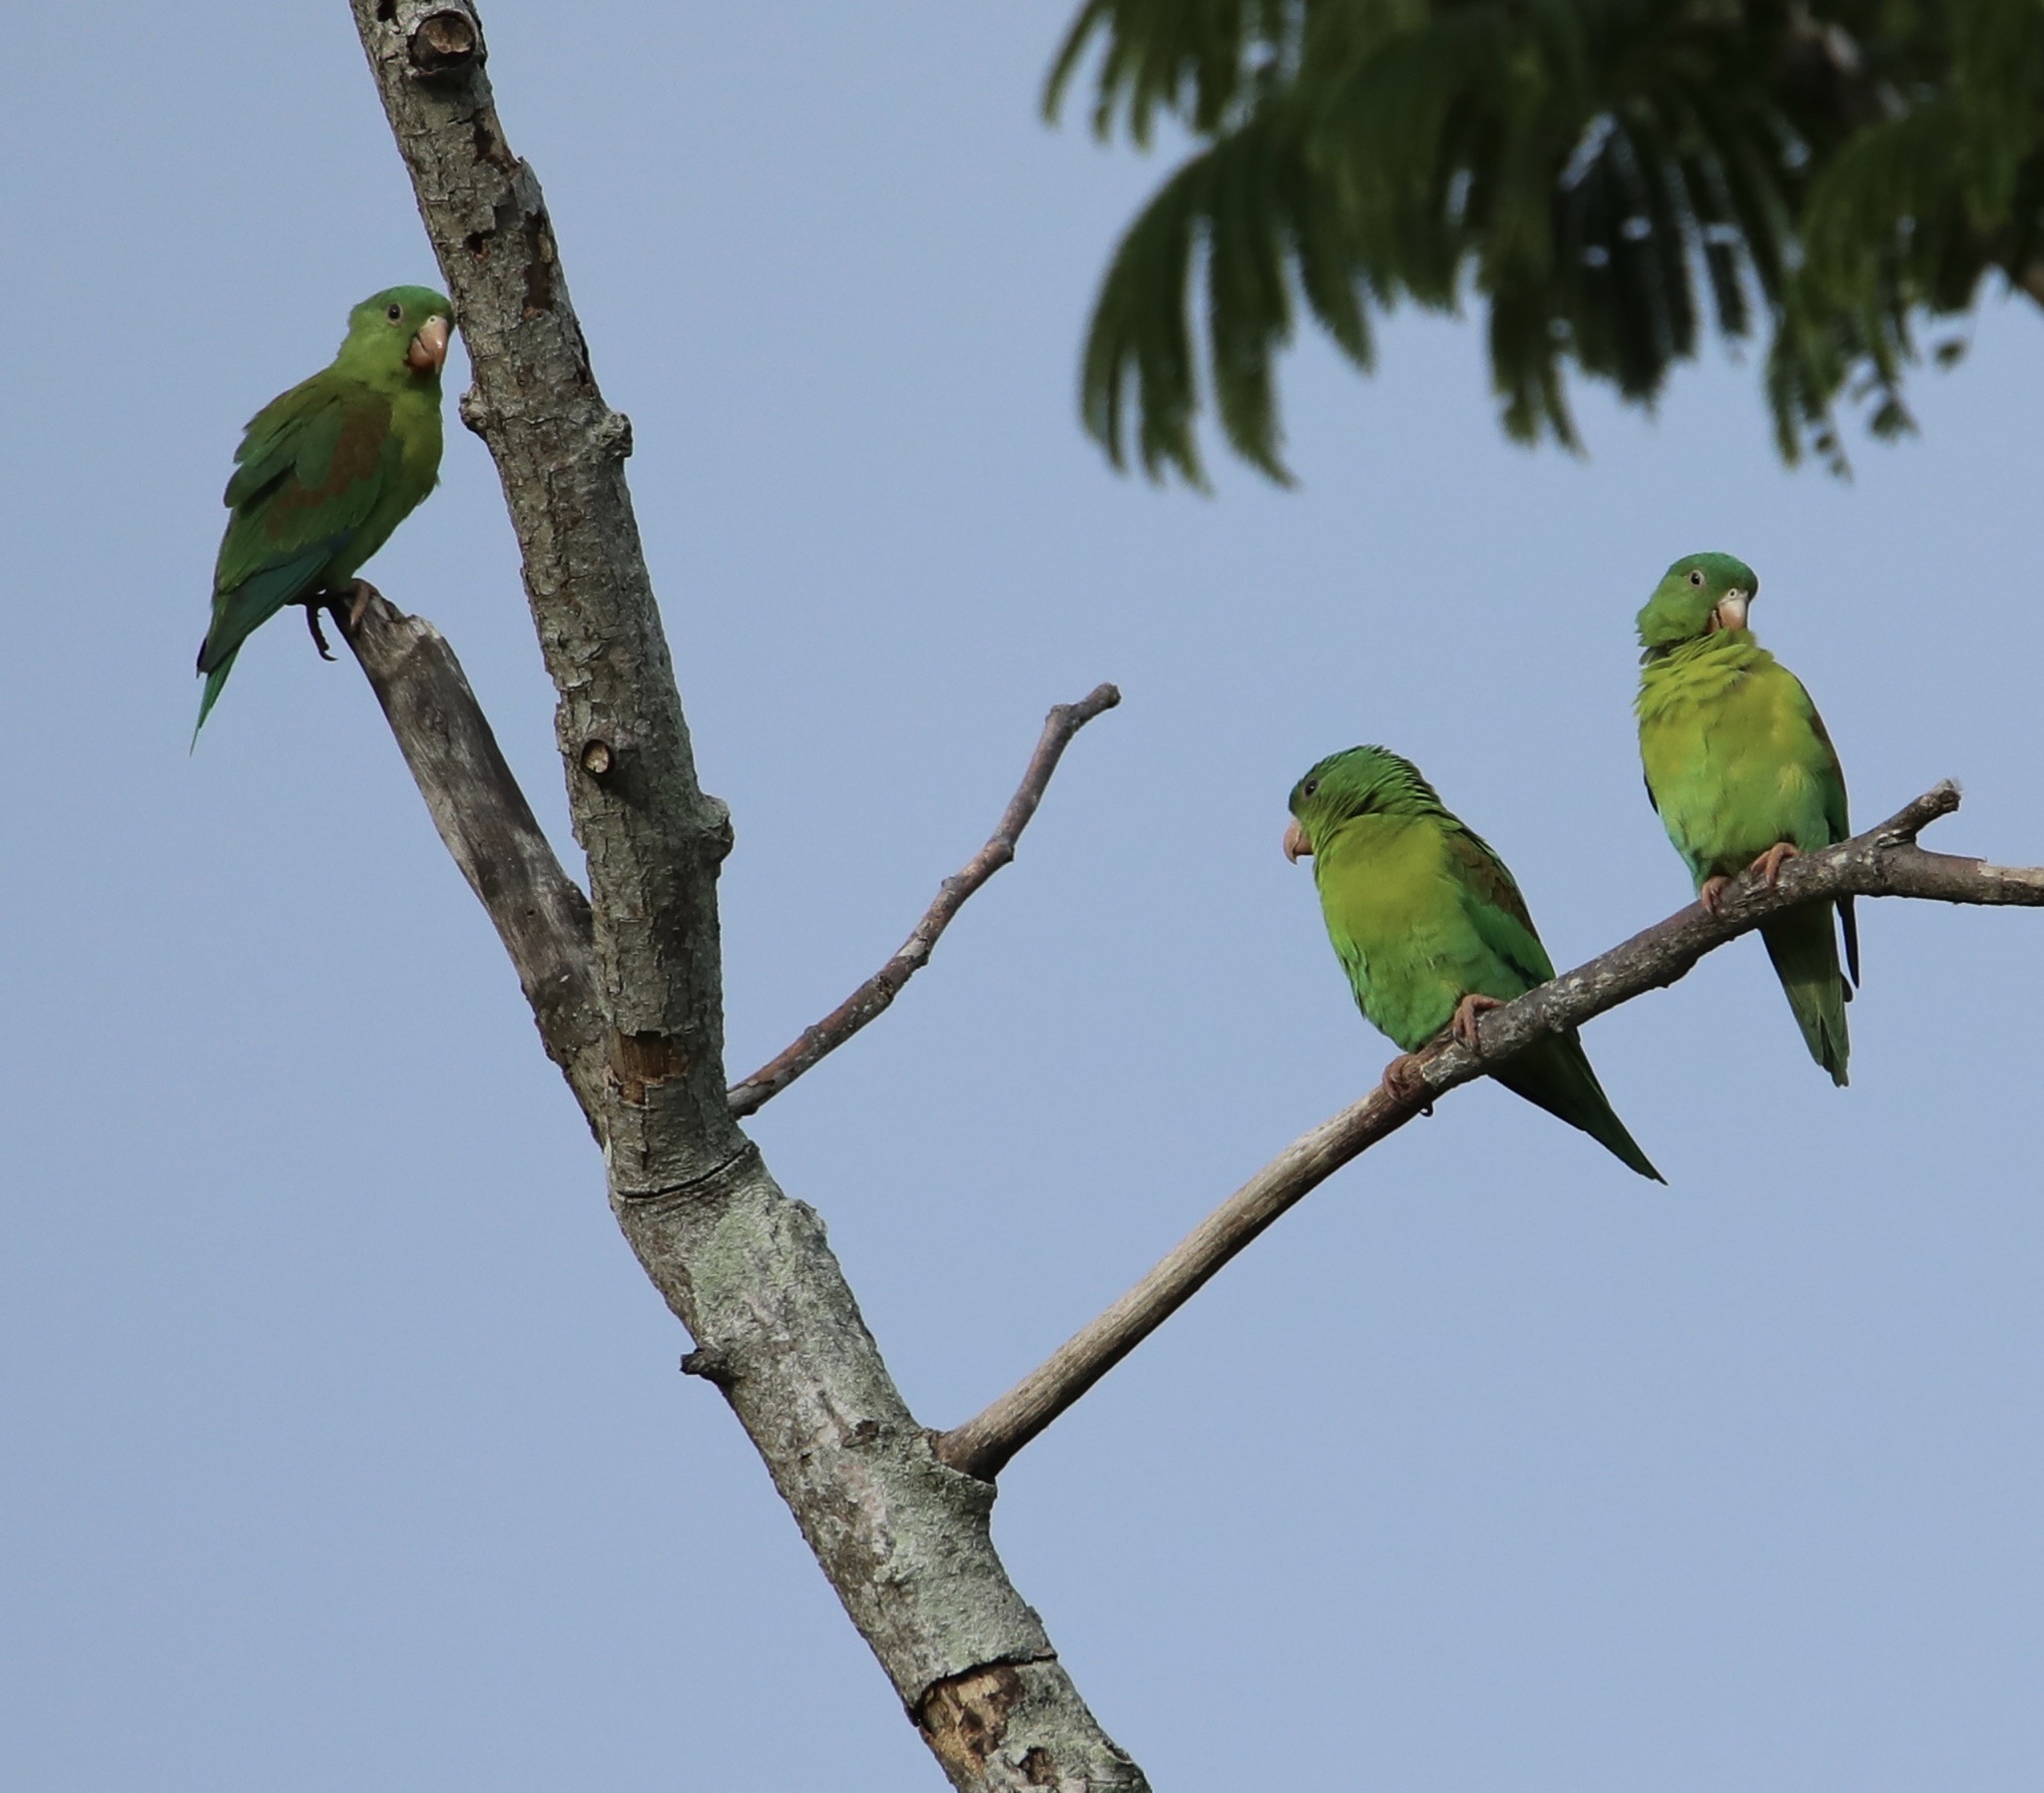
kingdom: Animalia
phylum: Chordata
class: Aves
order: Psittaciformes
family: Psittacidae
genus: Brotogeris
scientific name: Brotogeris jugularis
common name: Orange-chinned parakeet
